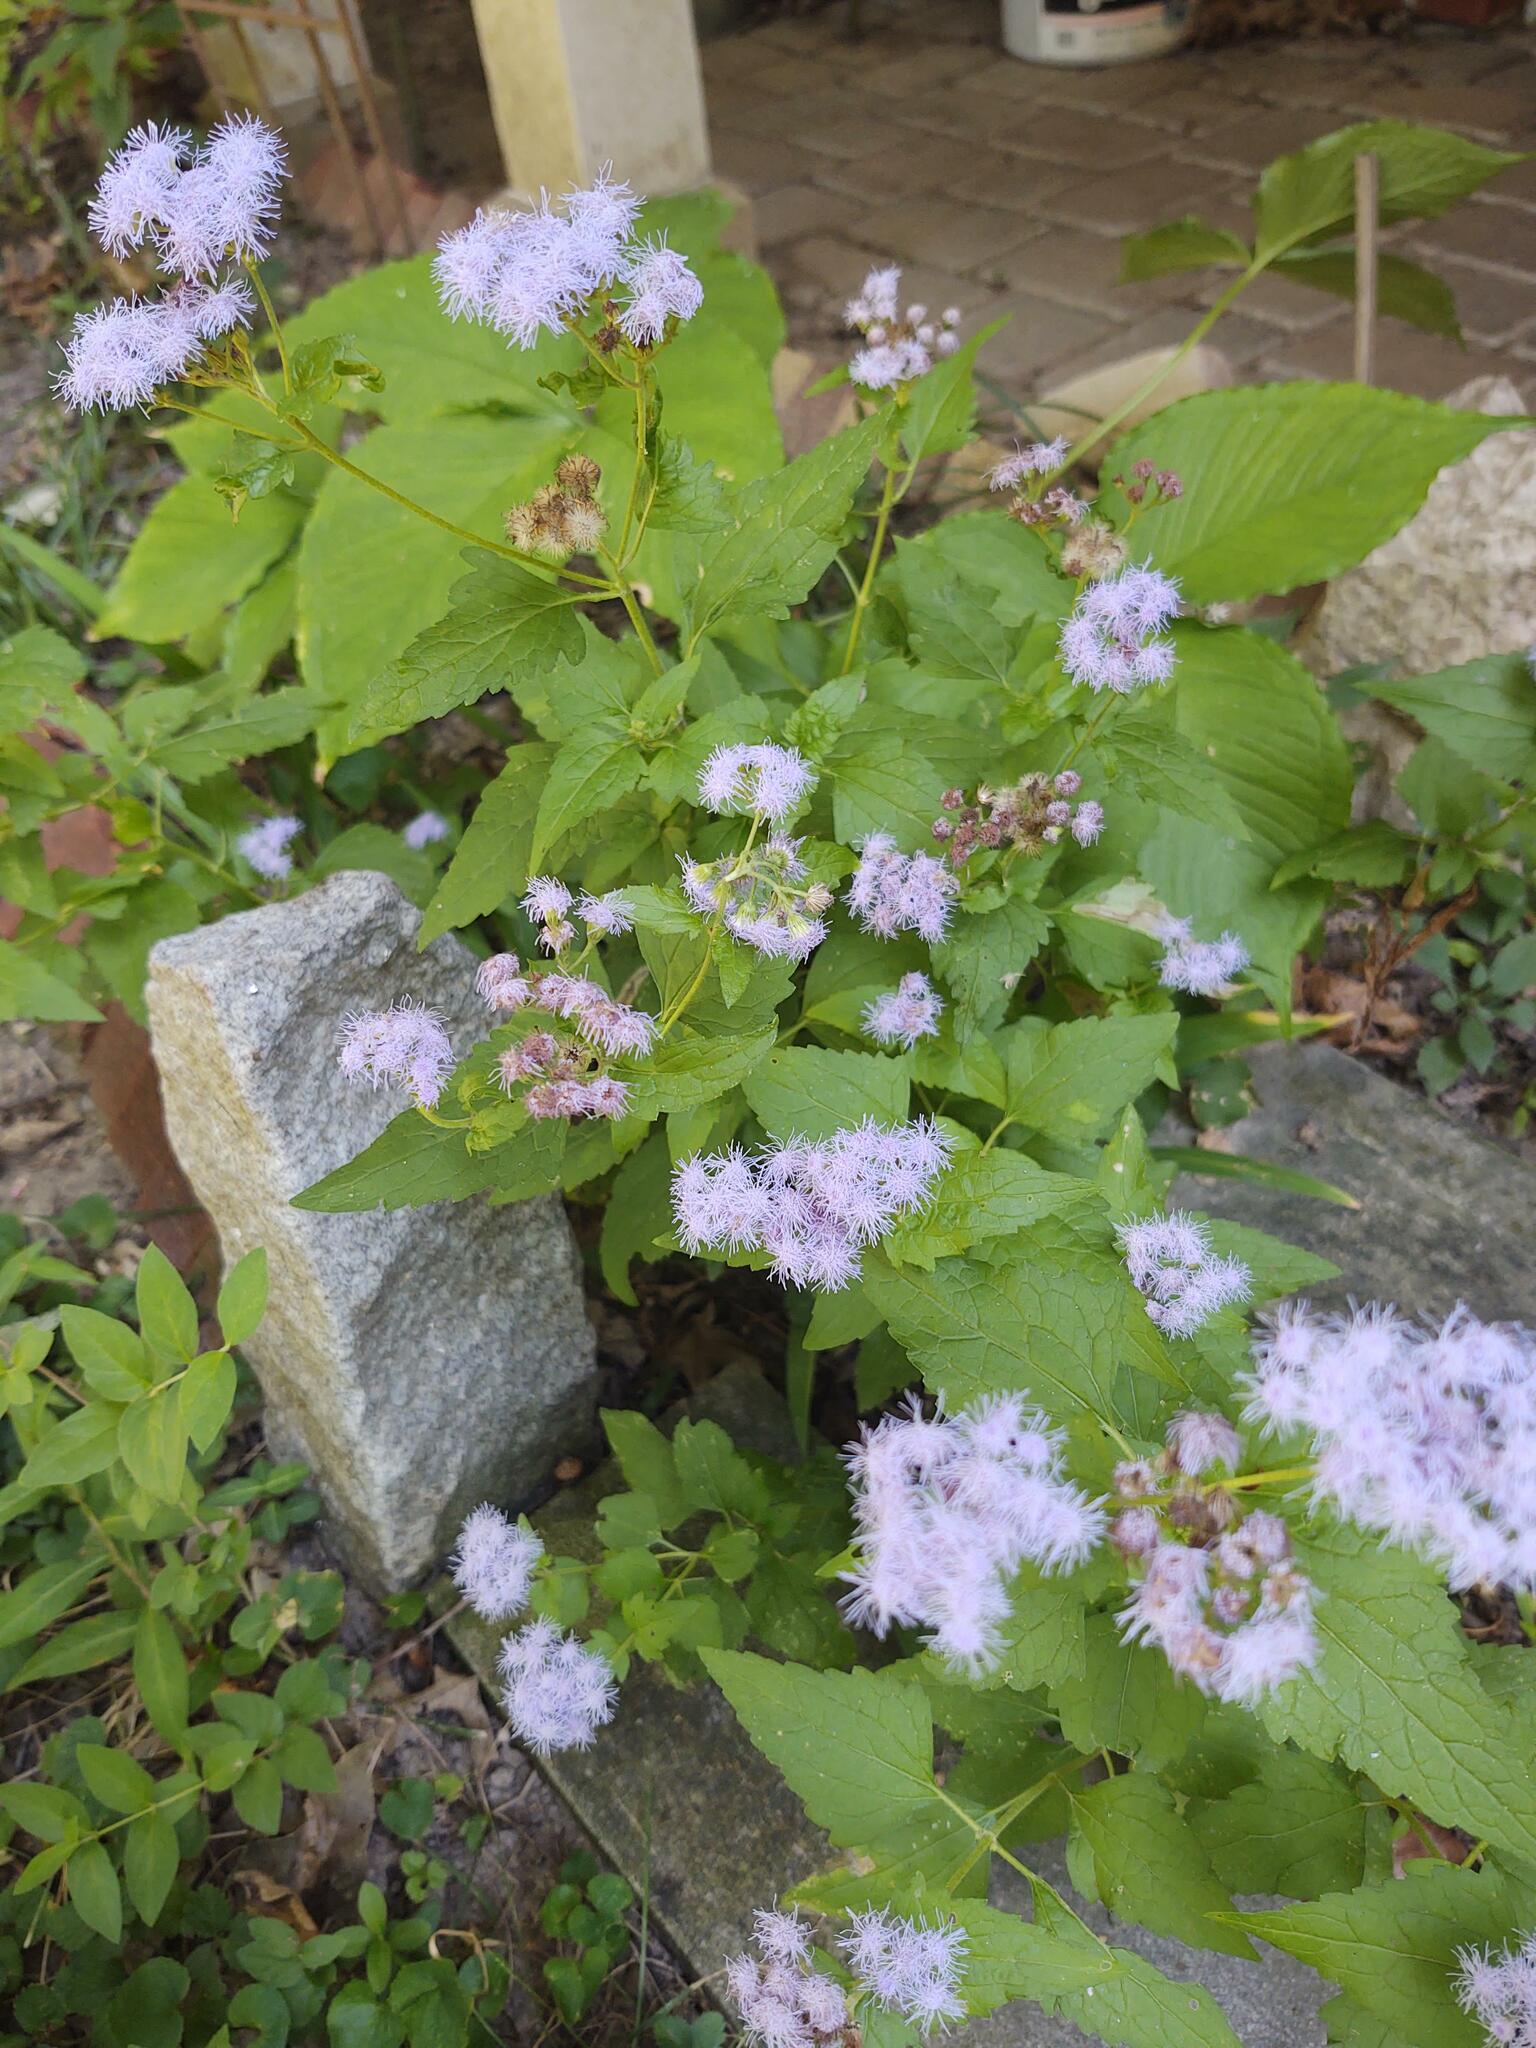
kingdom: Plantae
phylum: Tracheophyta
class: Magnoliopsida
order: Asterales
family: Asteraceae
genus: Conoclinium
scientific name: Conoclinium coelestinum
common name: Blue mistflower
